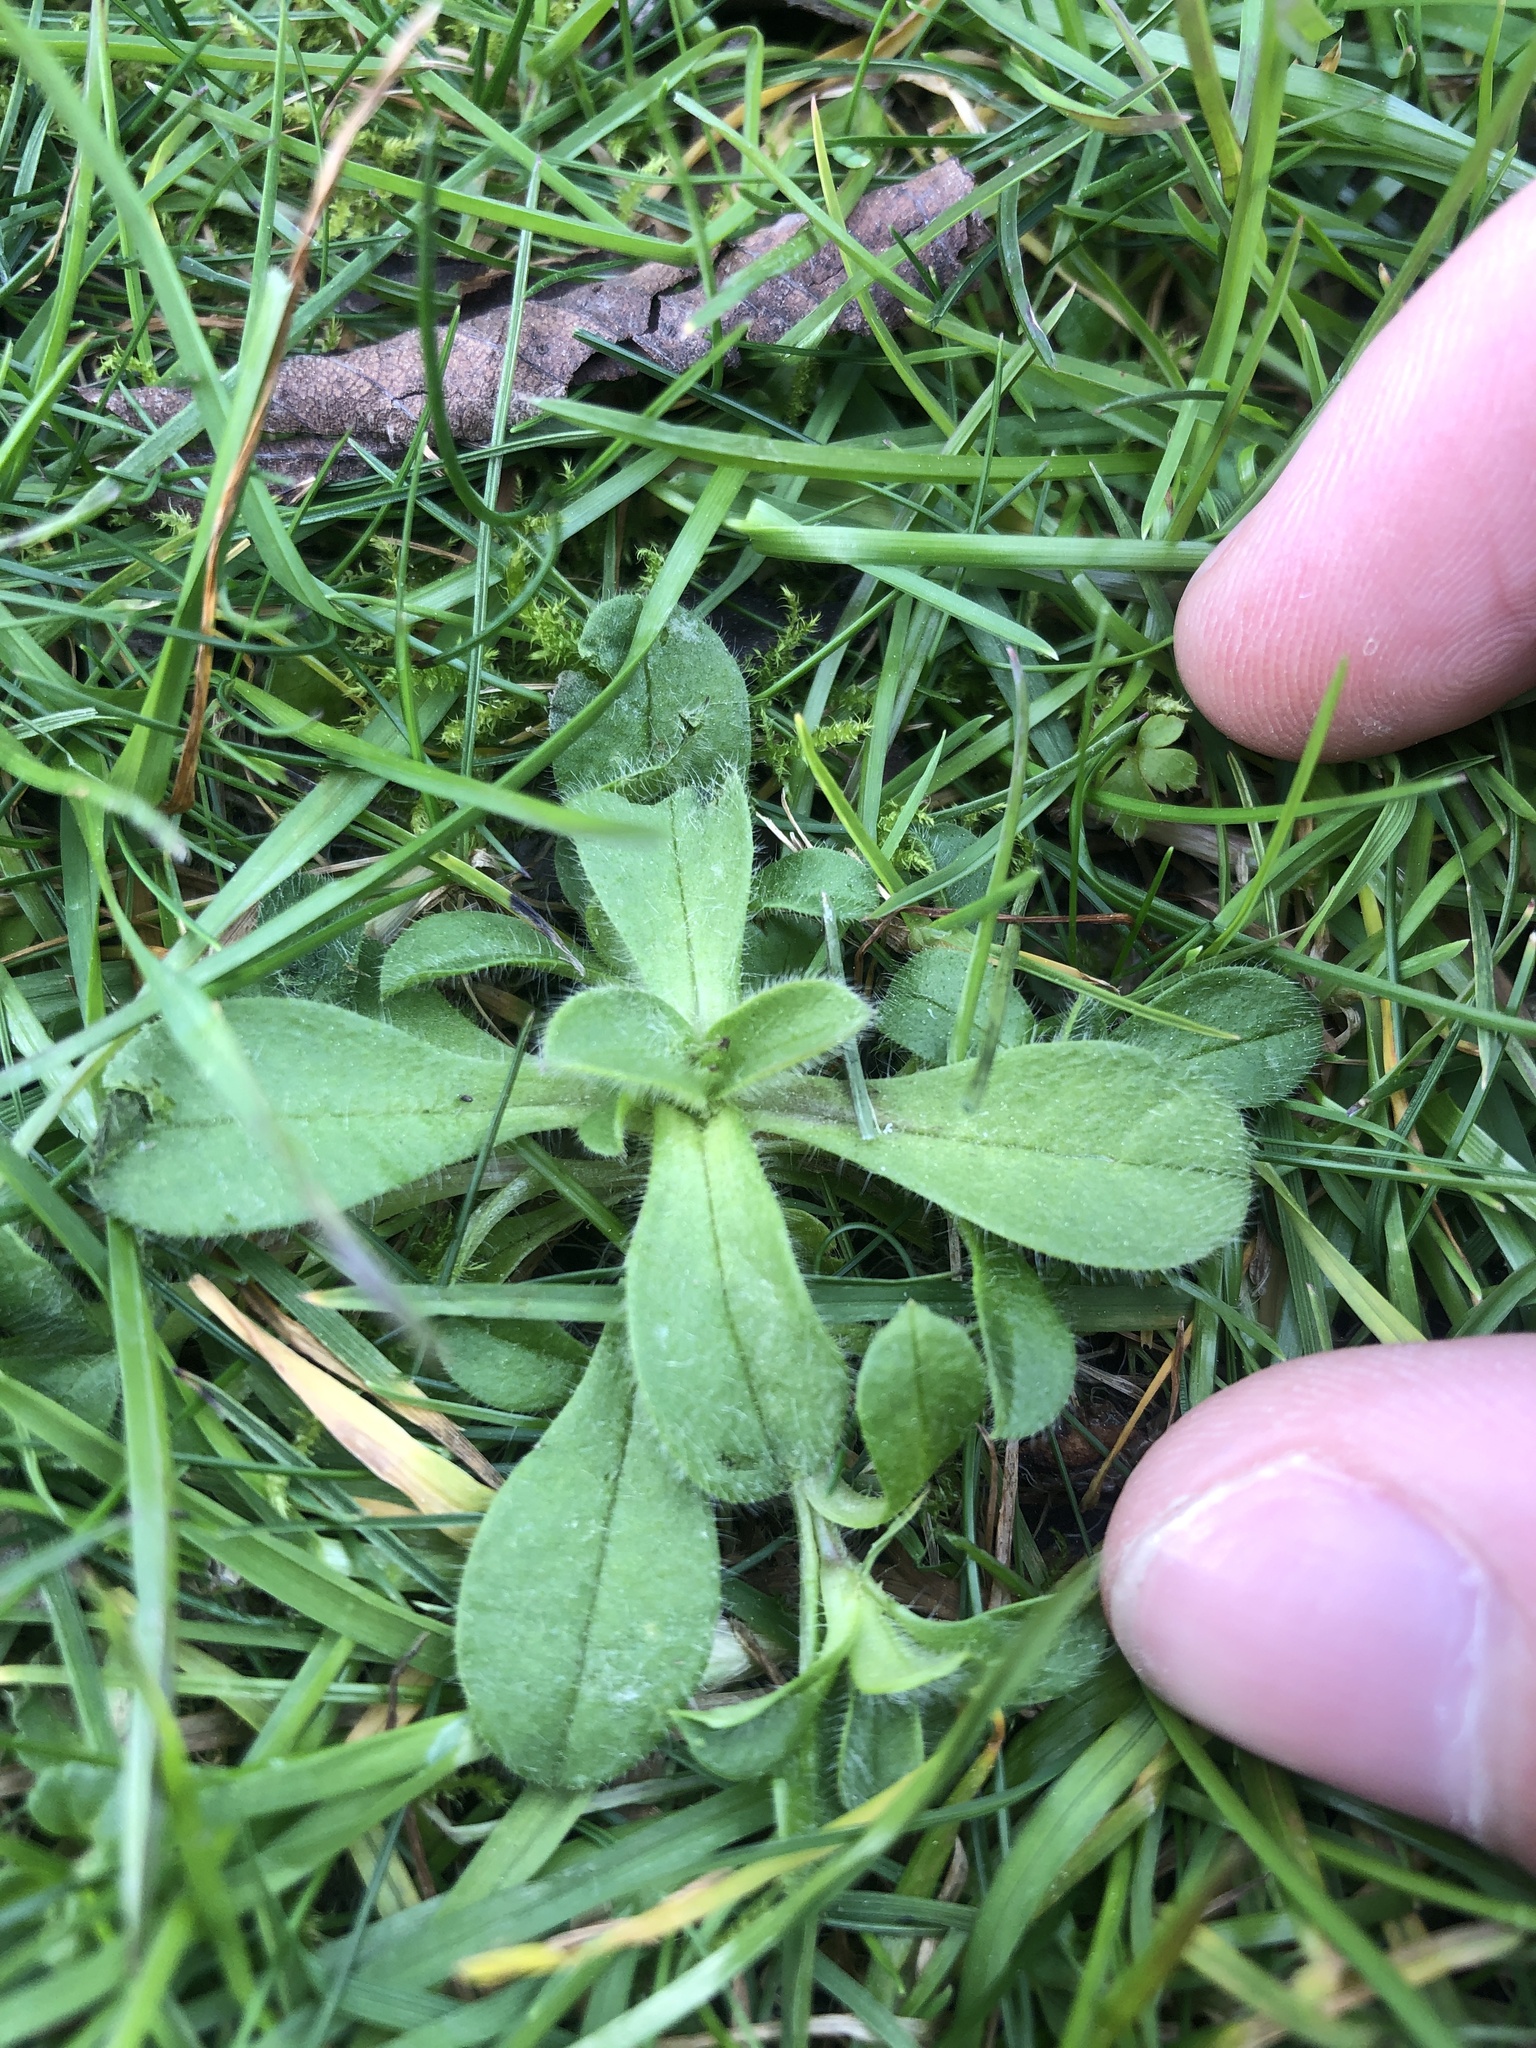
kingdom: Plantae
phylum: Tracheophyta
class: Magnoliopsida
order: Caryophyllales
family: Caryophyllaceae
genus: Cerastium
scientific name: Cerastium glomeratum
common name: Sticky chickweed
